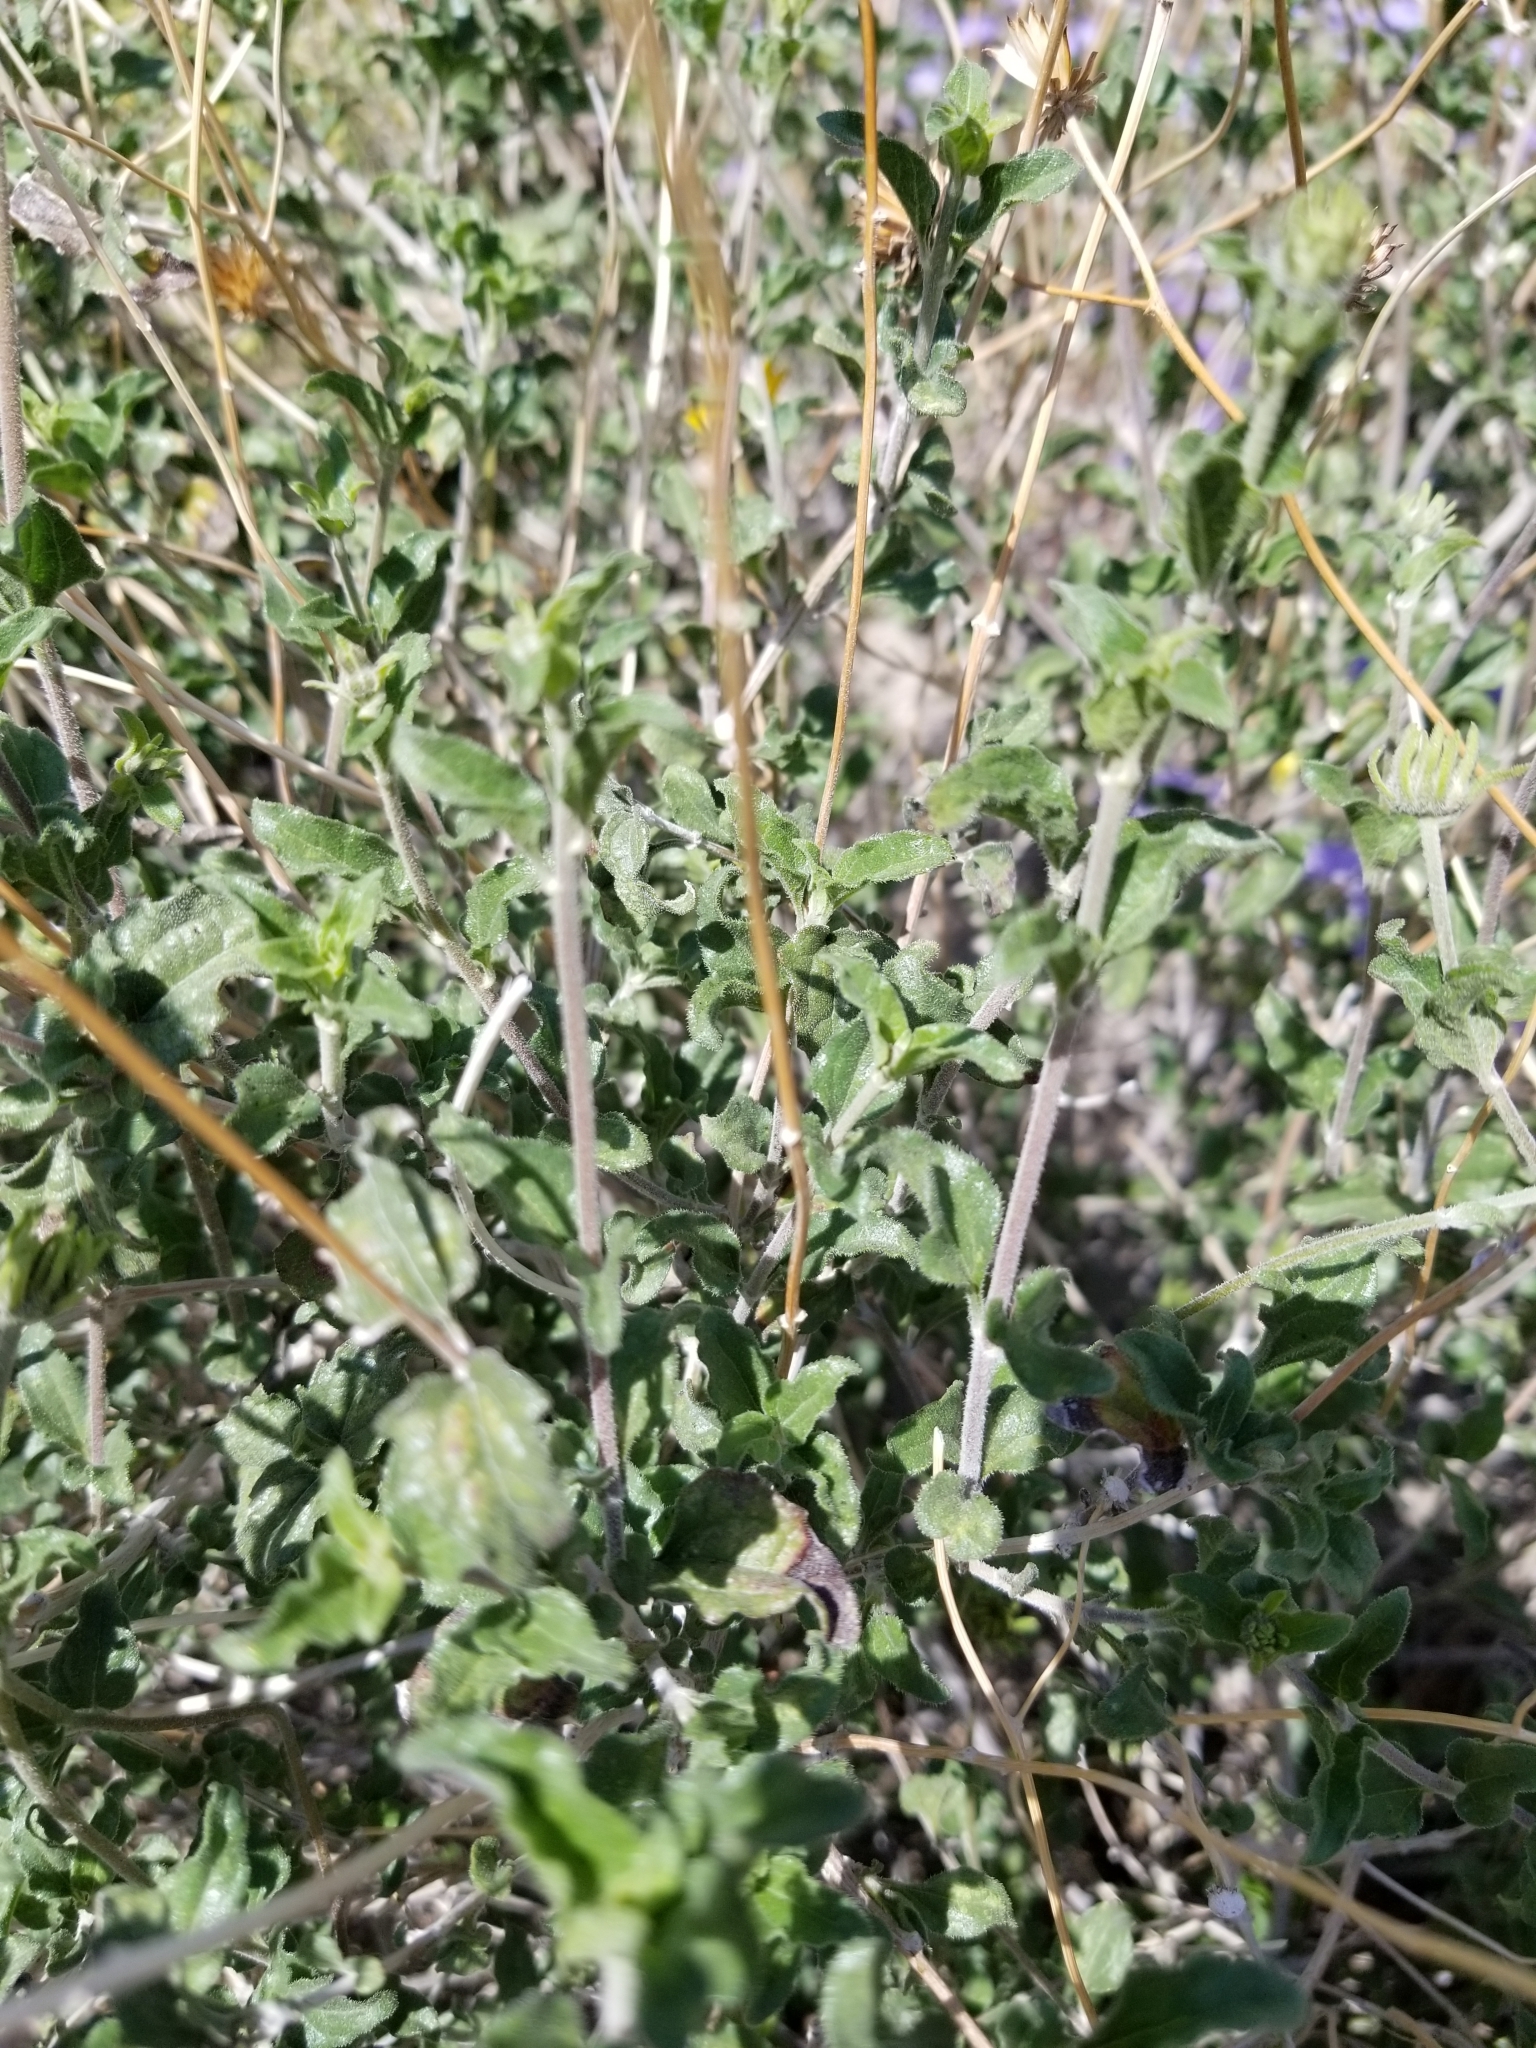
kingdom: Plantae
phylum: Tracheophyta
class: Magnoliopsida
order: Asterales
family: Asteraceae
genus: Bahiopsis
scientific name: Bahiopsis parishii
